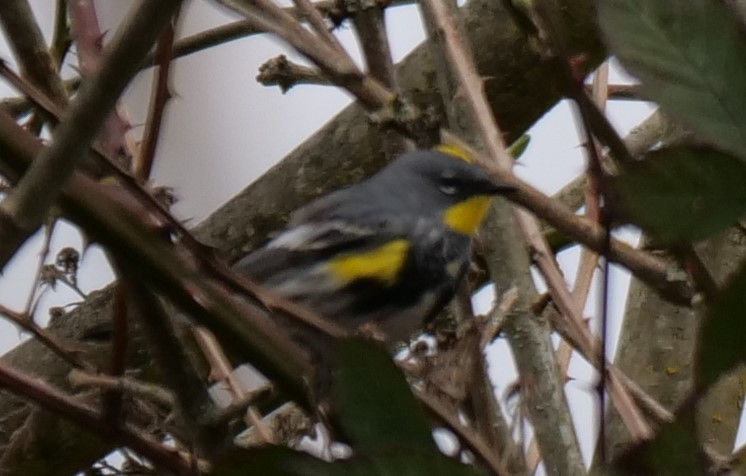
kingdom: Animalia
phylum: Chordata
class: Aves
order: Passeriformes
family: Parulidae
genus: Setophaga
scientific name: Setophaga auduboni
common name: Audubon's warbler
